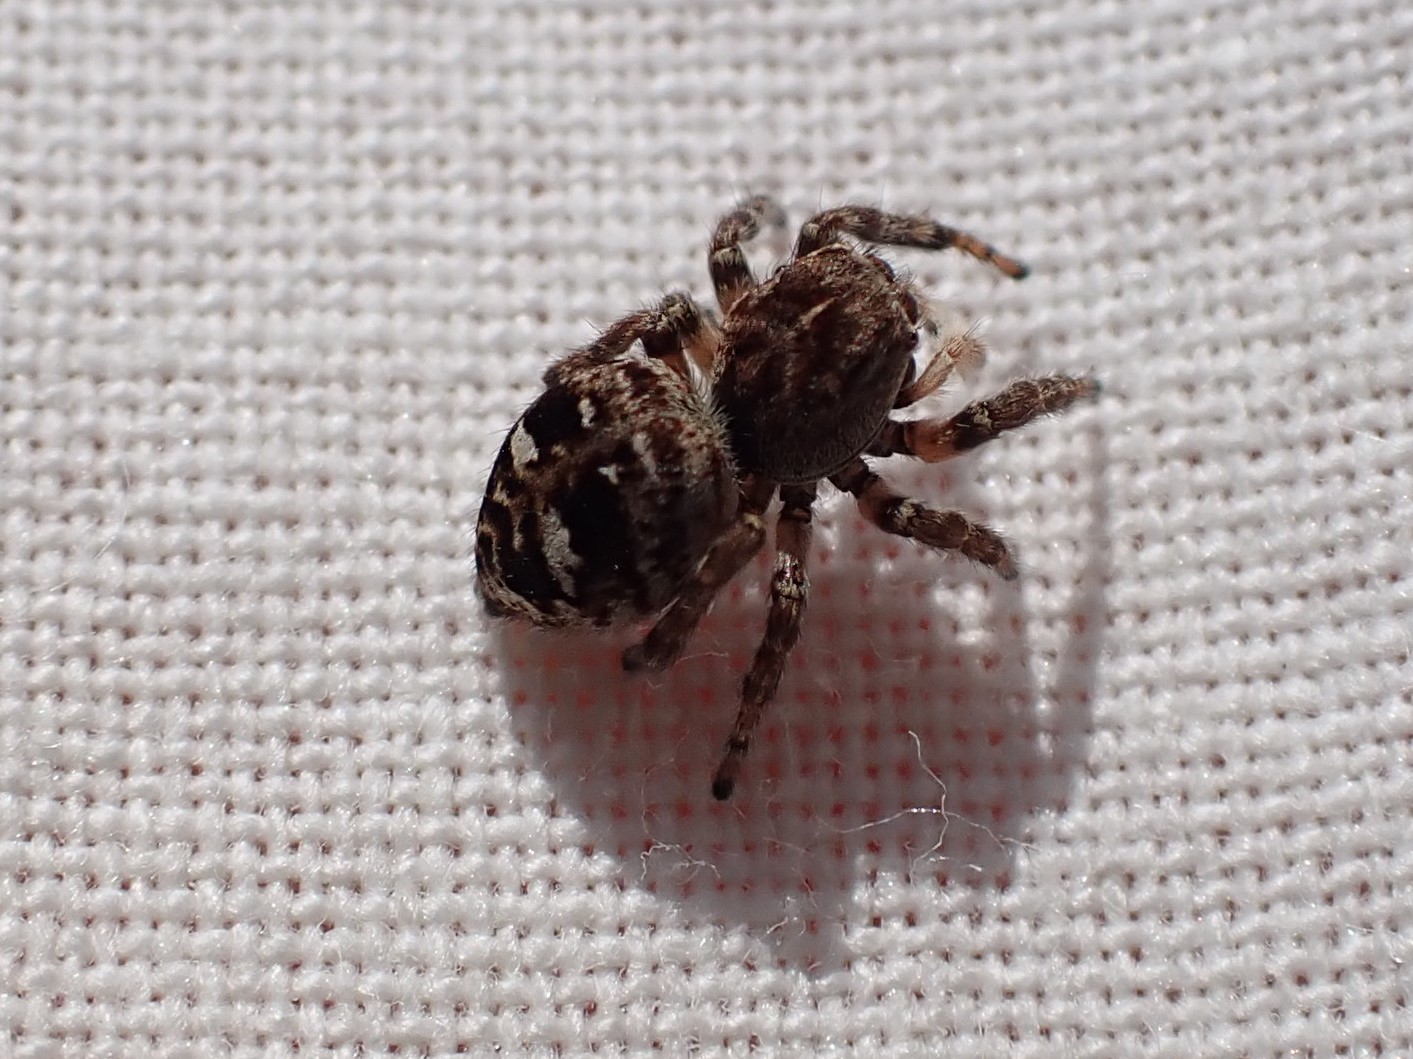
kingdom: Animalia
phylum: Arthropoda
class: Arachnida
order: Araneae
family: Salticidae
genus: Attulus
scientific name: Attulus floricola
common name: Flower jumping spider
